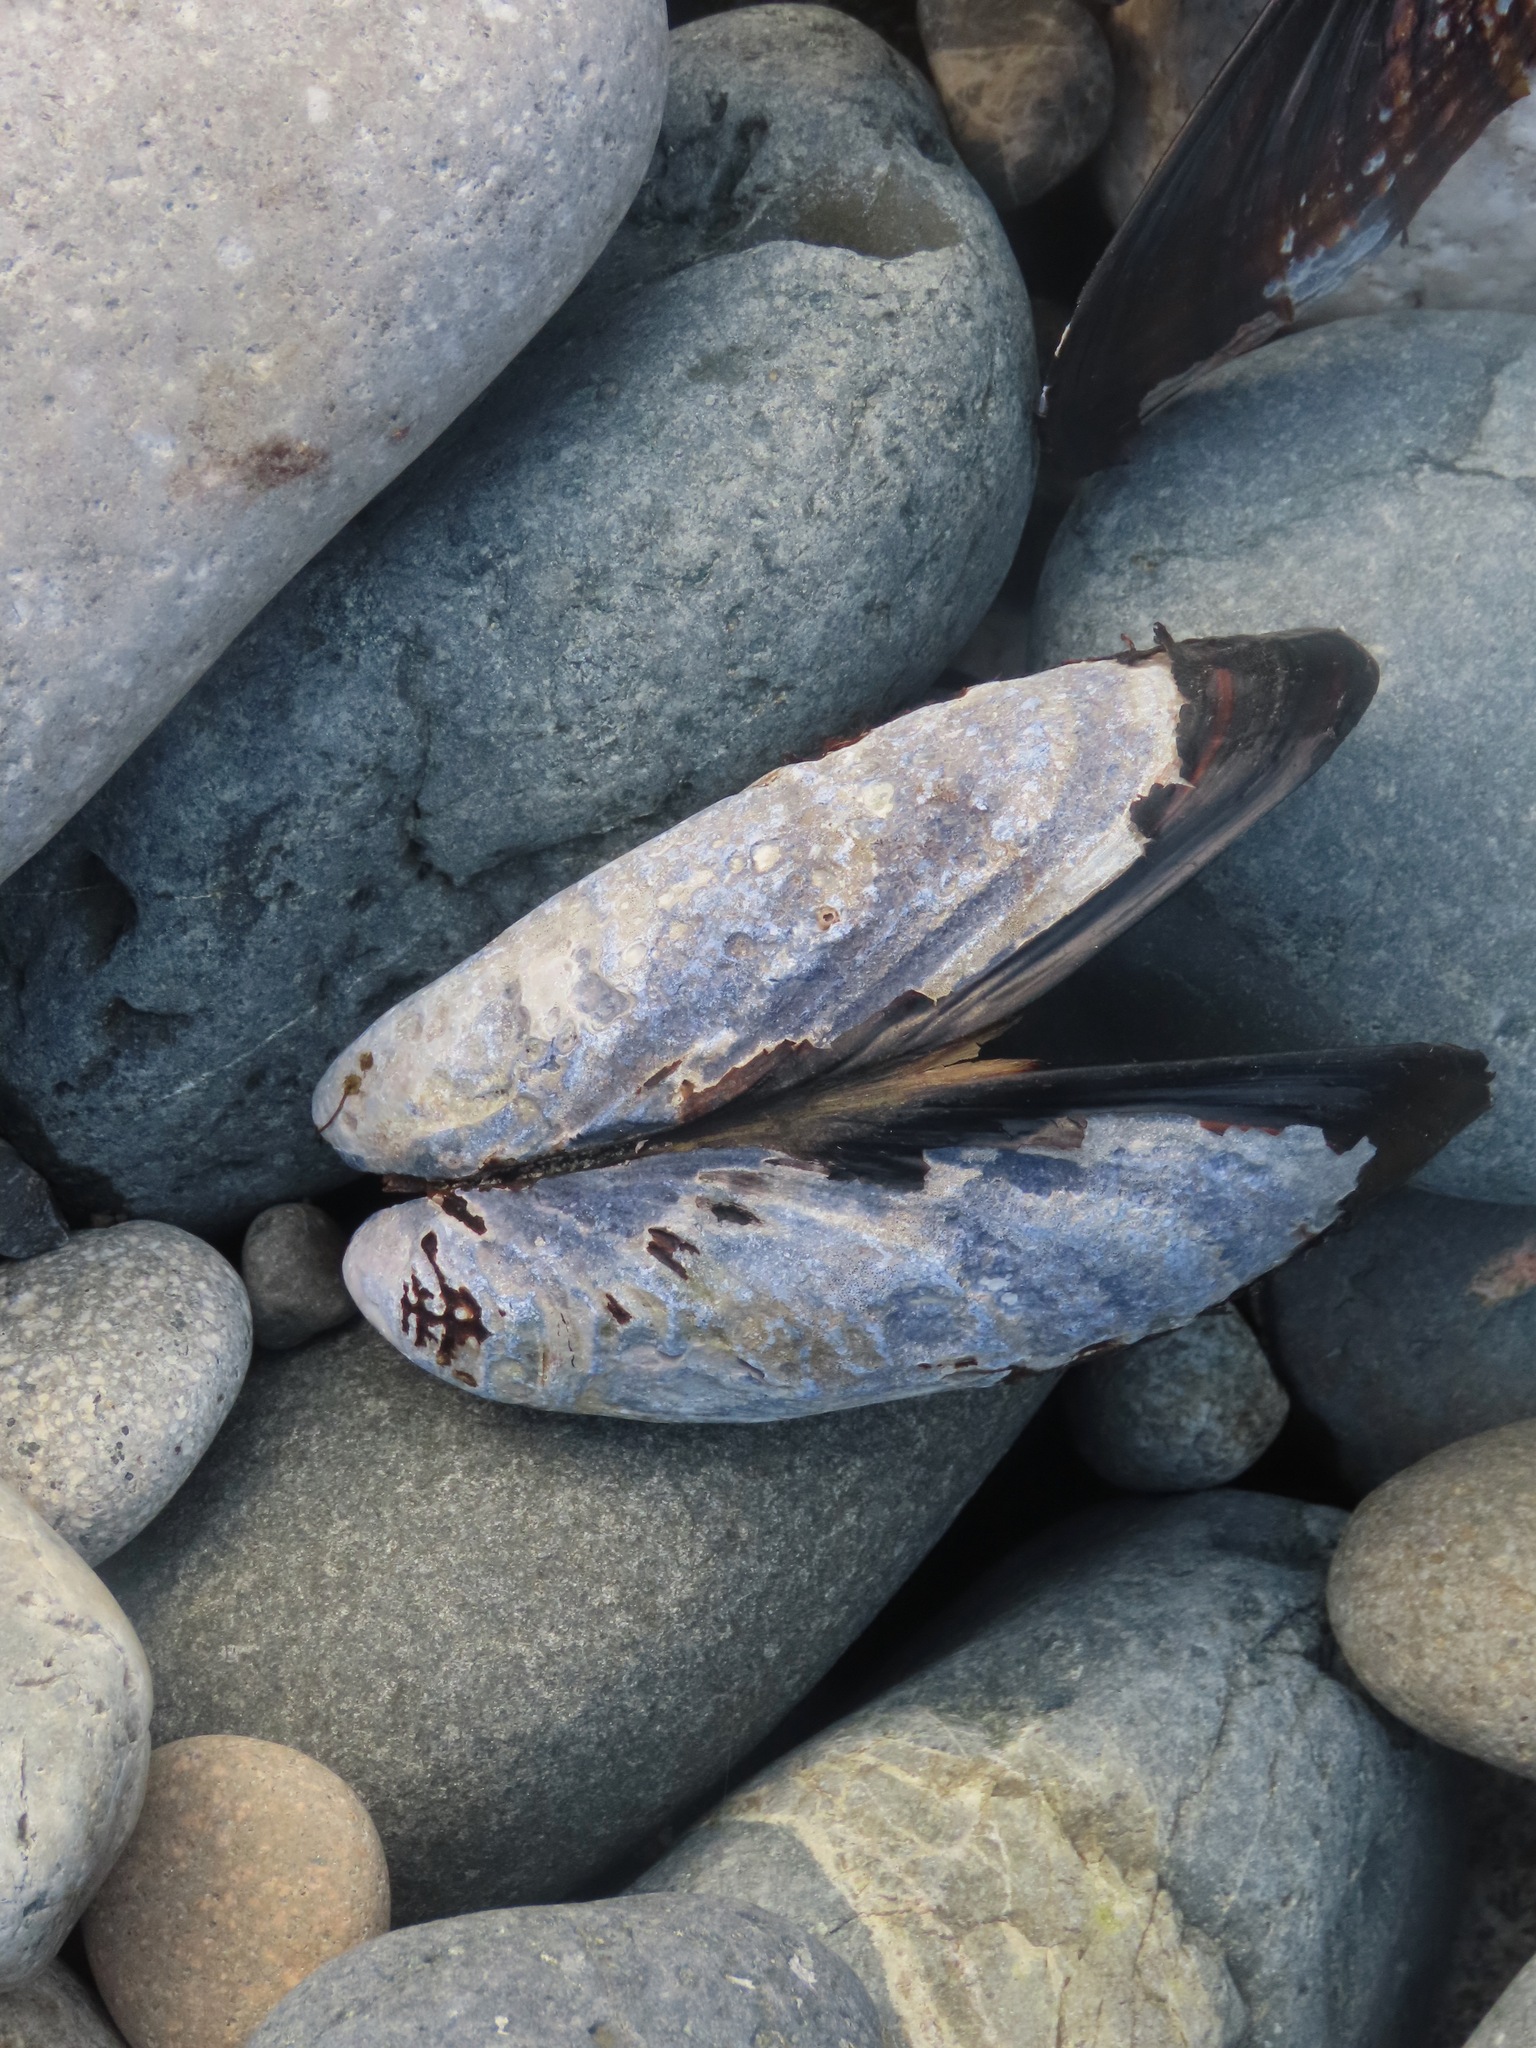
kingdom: Animalia
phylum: Mollusca
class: Bivalvia
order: Mytilida
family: Mytilidae
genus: Mytilus
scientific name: Mytilus californianus
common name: California mussel
